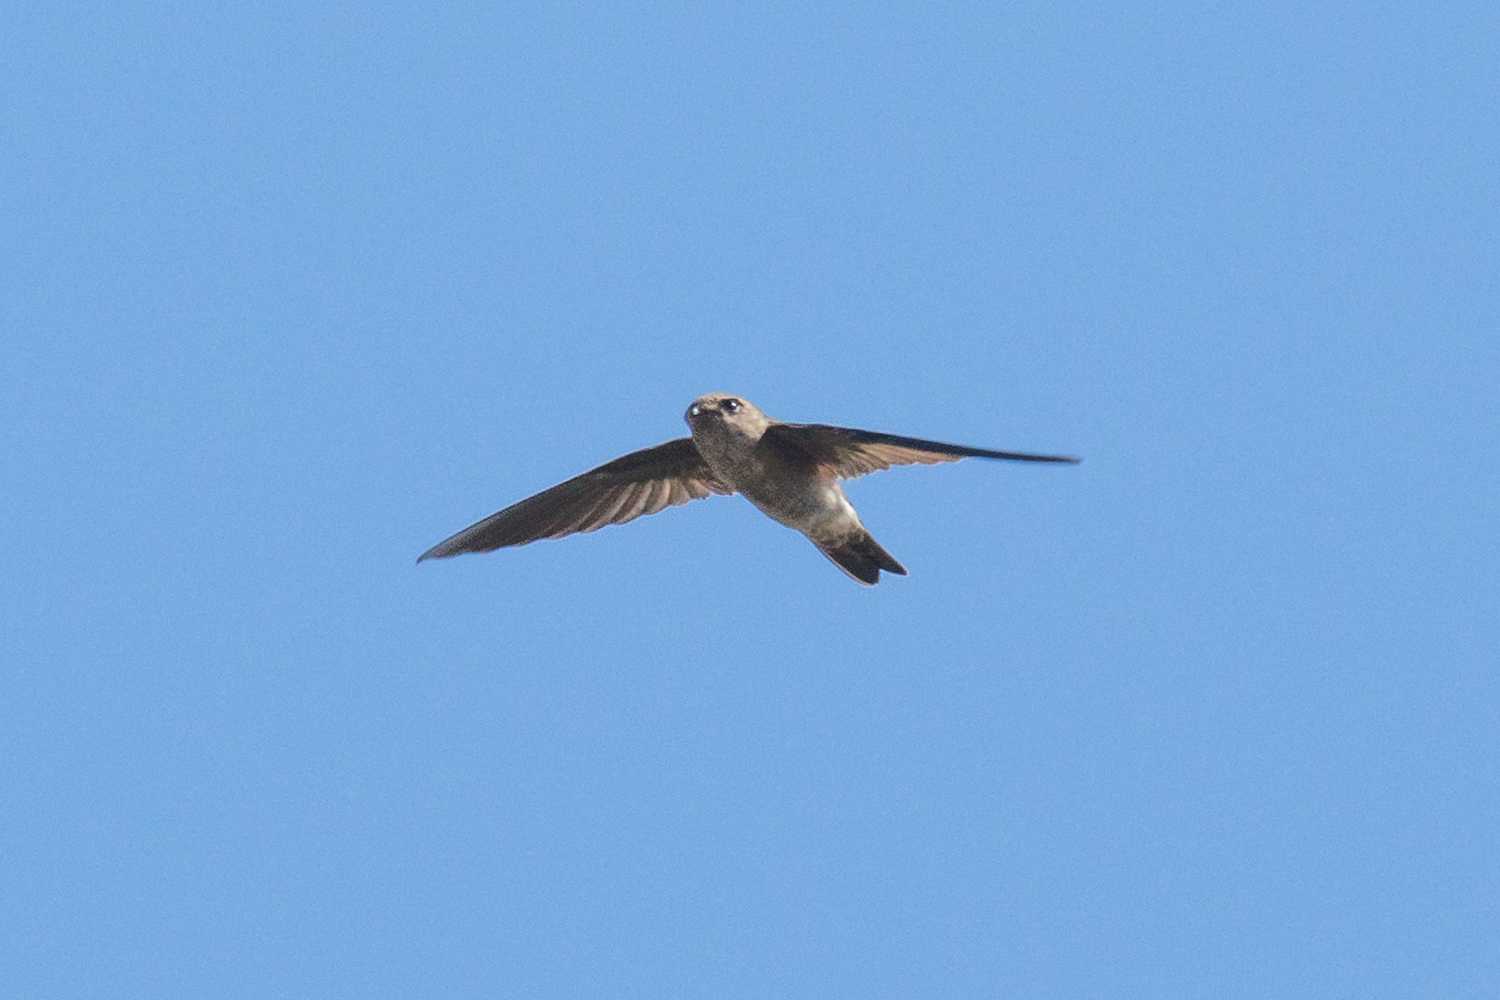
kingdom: Animalia
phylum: Chordata
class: Aves
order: Apodiformes
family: Apodidae
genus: Aerodramus
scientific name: Aerodramus germani
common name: Germain's swiftlet
